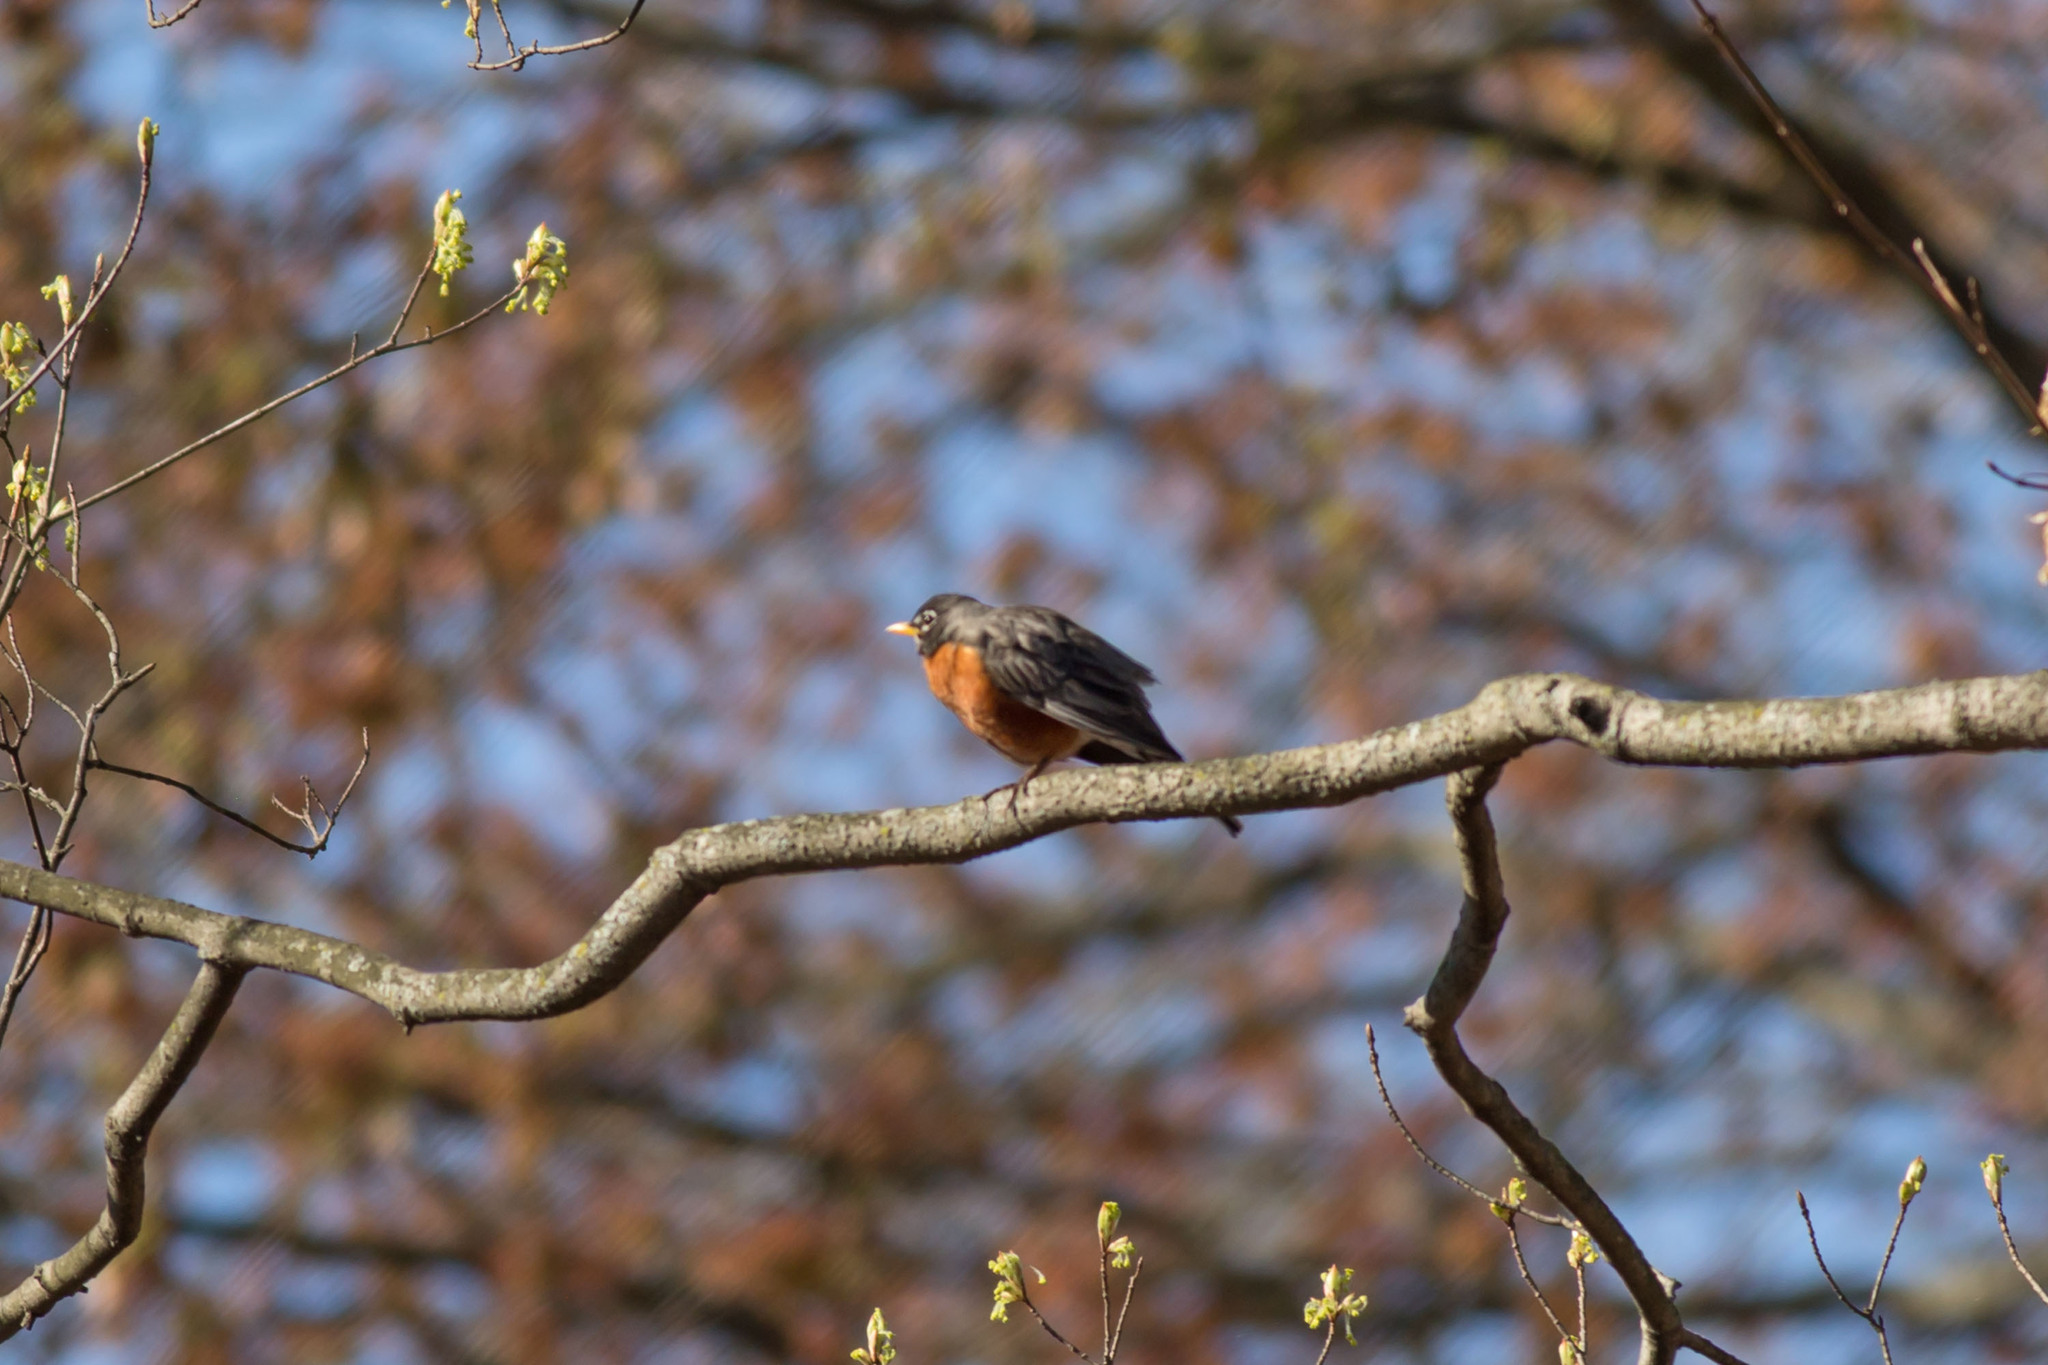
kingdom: Animalia
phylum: Chordata
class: Aves
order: Passeriformes
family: Turdidae
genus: Turdus
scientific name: Turdus migratorius
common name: American robin
